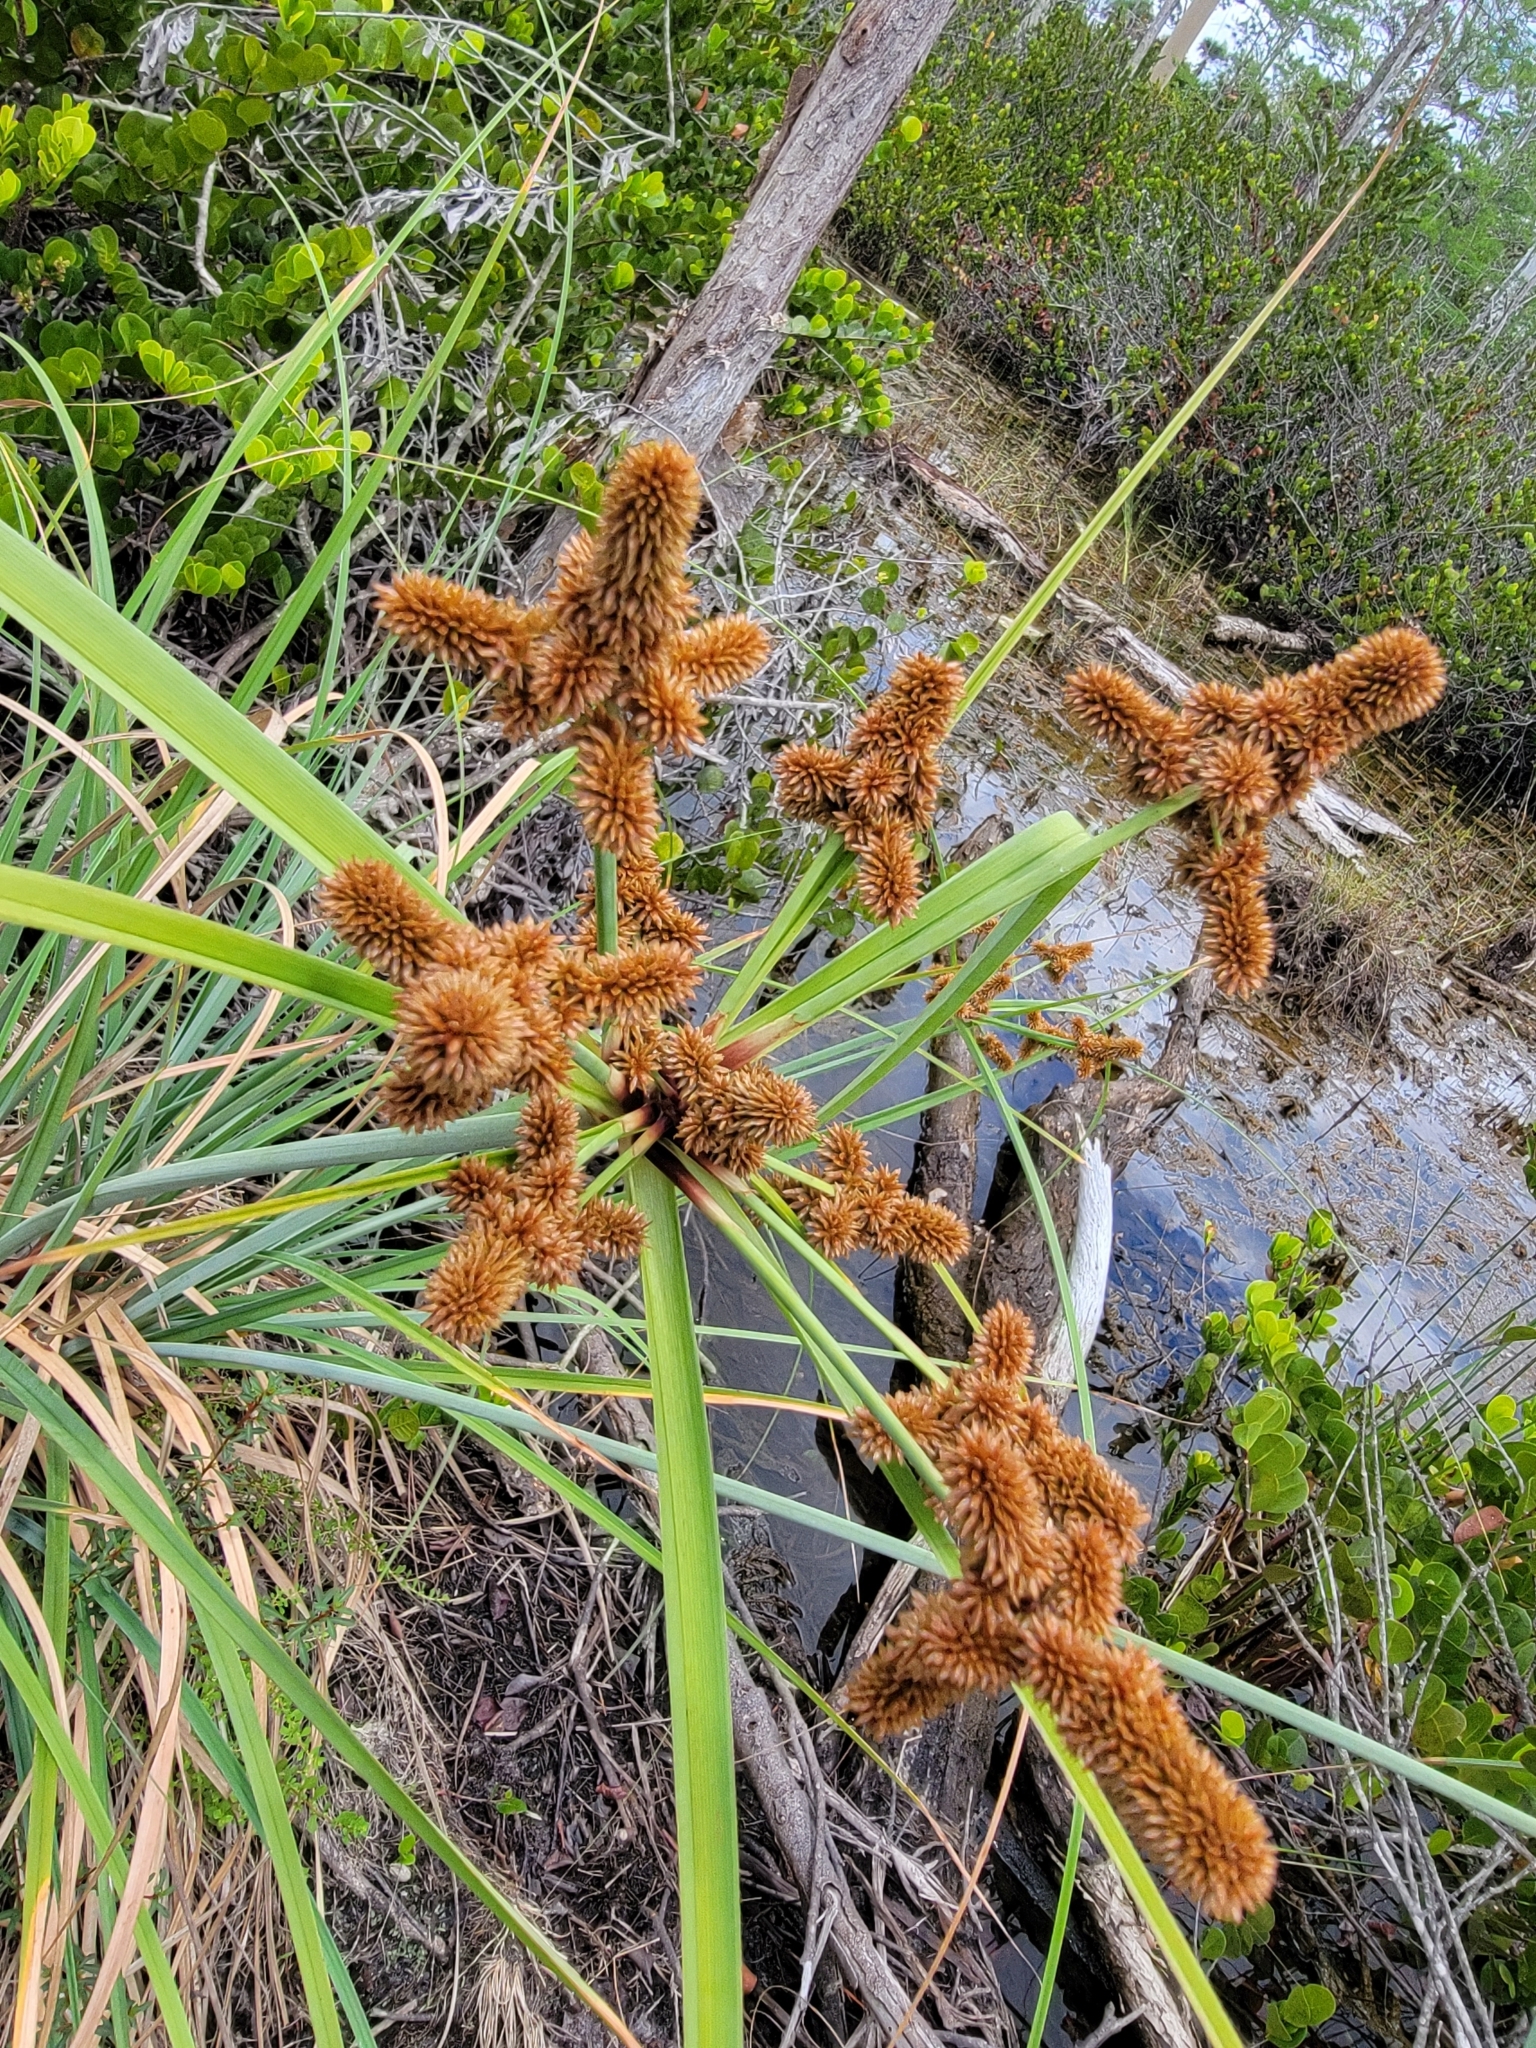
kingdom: Plantae
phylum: Tracheophyta
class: Liliopsida
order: Poales
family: Cyperaceae
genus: Cyperus
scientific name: Cyperus ligularis
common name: Swamp flat sedge
